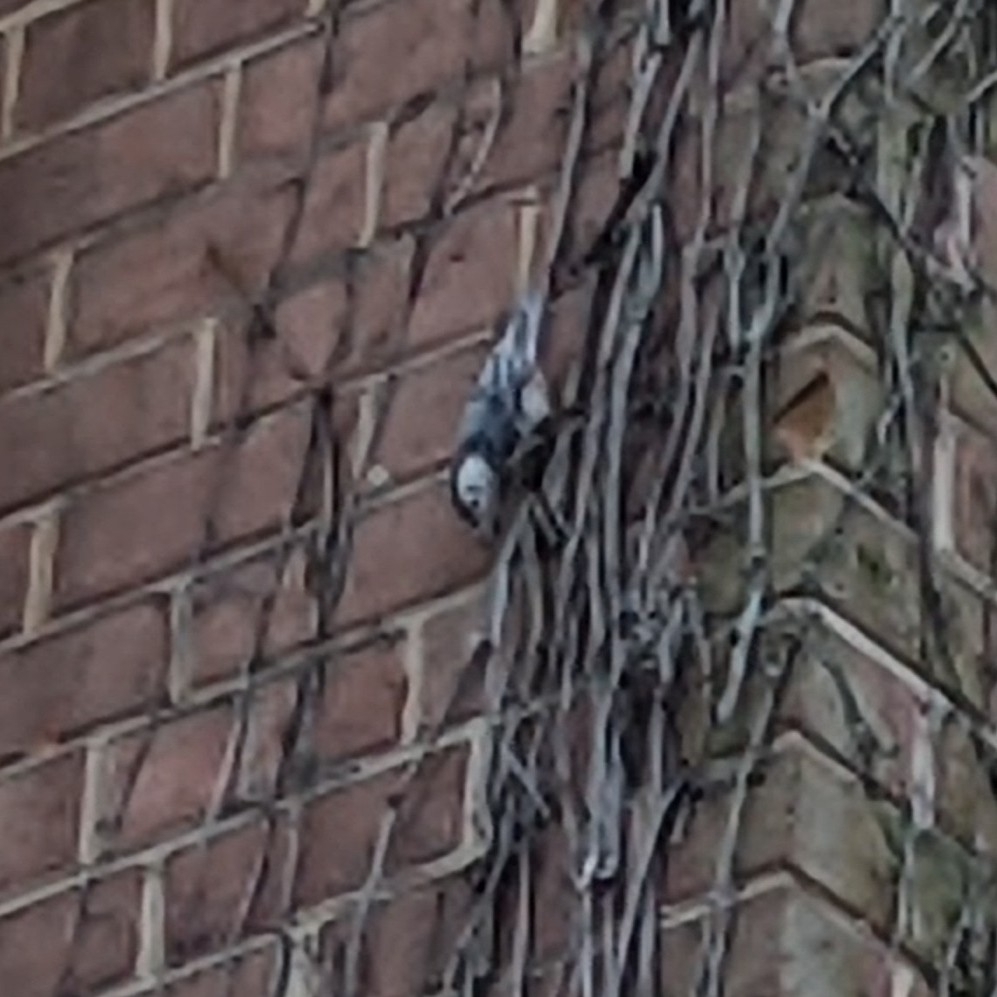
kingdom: Animalia
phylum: Chordata
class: Aves
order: Passeriformes
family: Sittidae
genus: Sitta
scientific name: Sitta carolinensis
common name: White-breasted nuthatch
